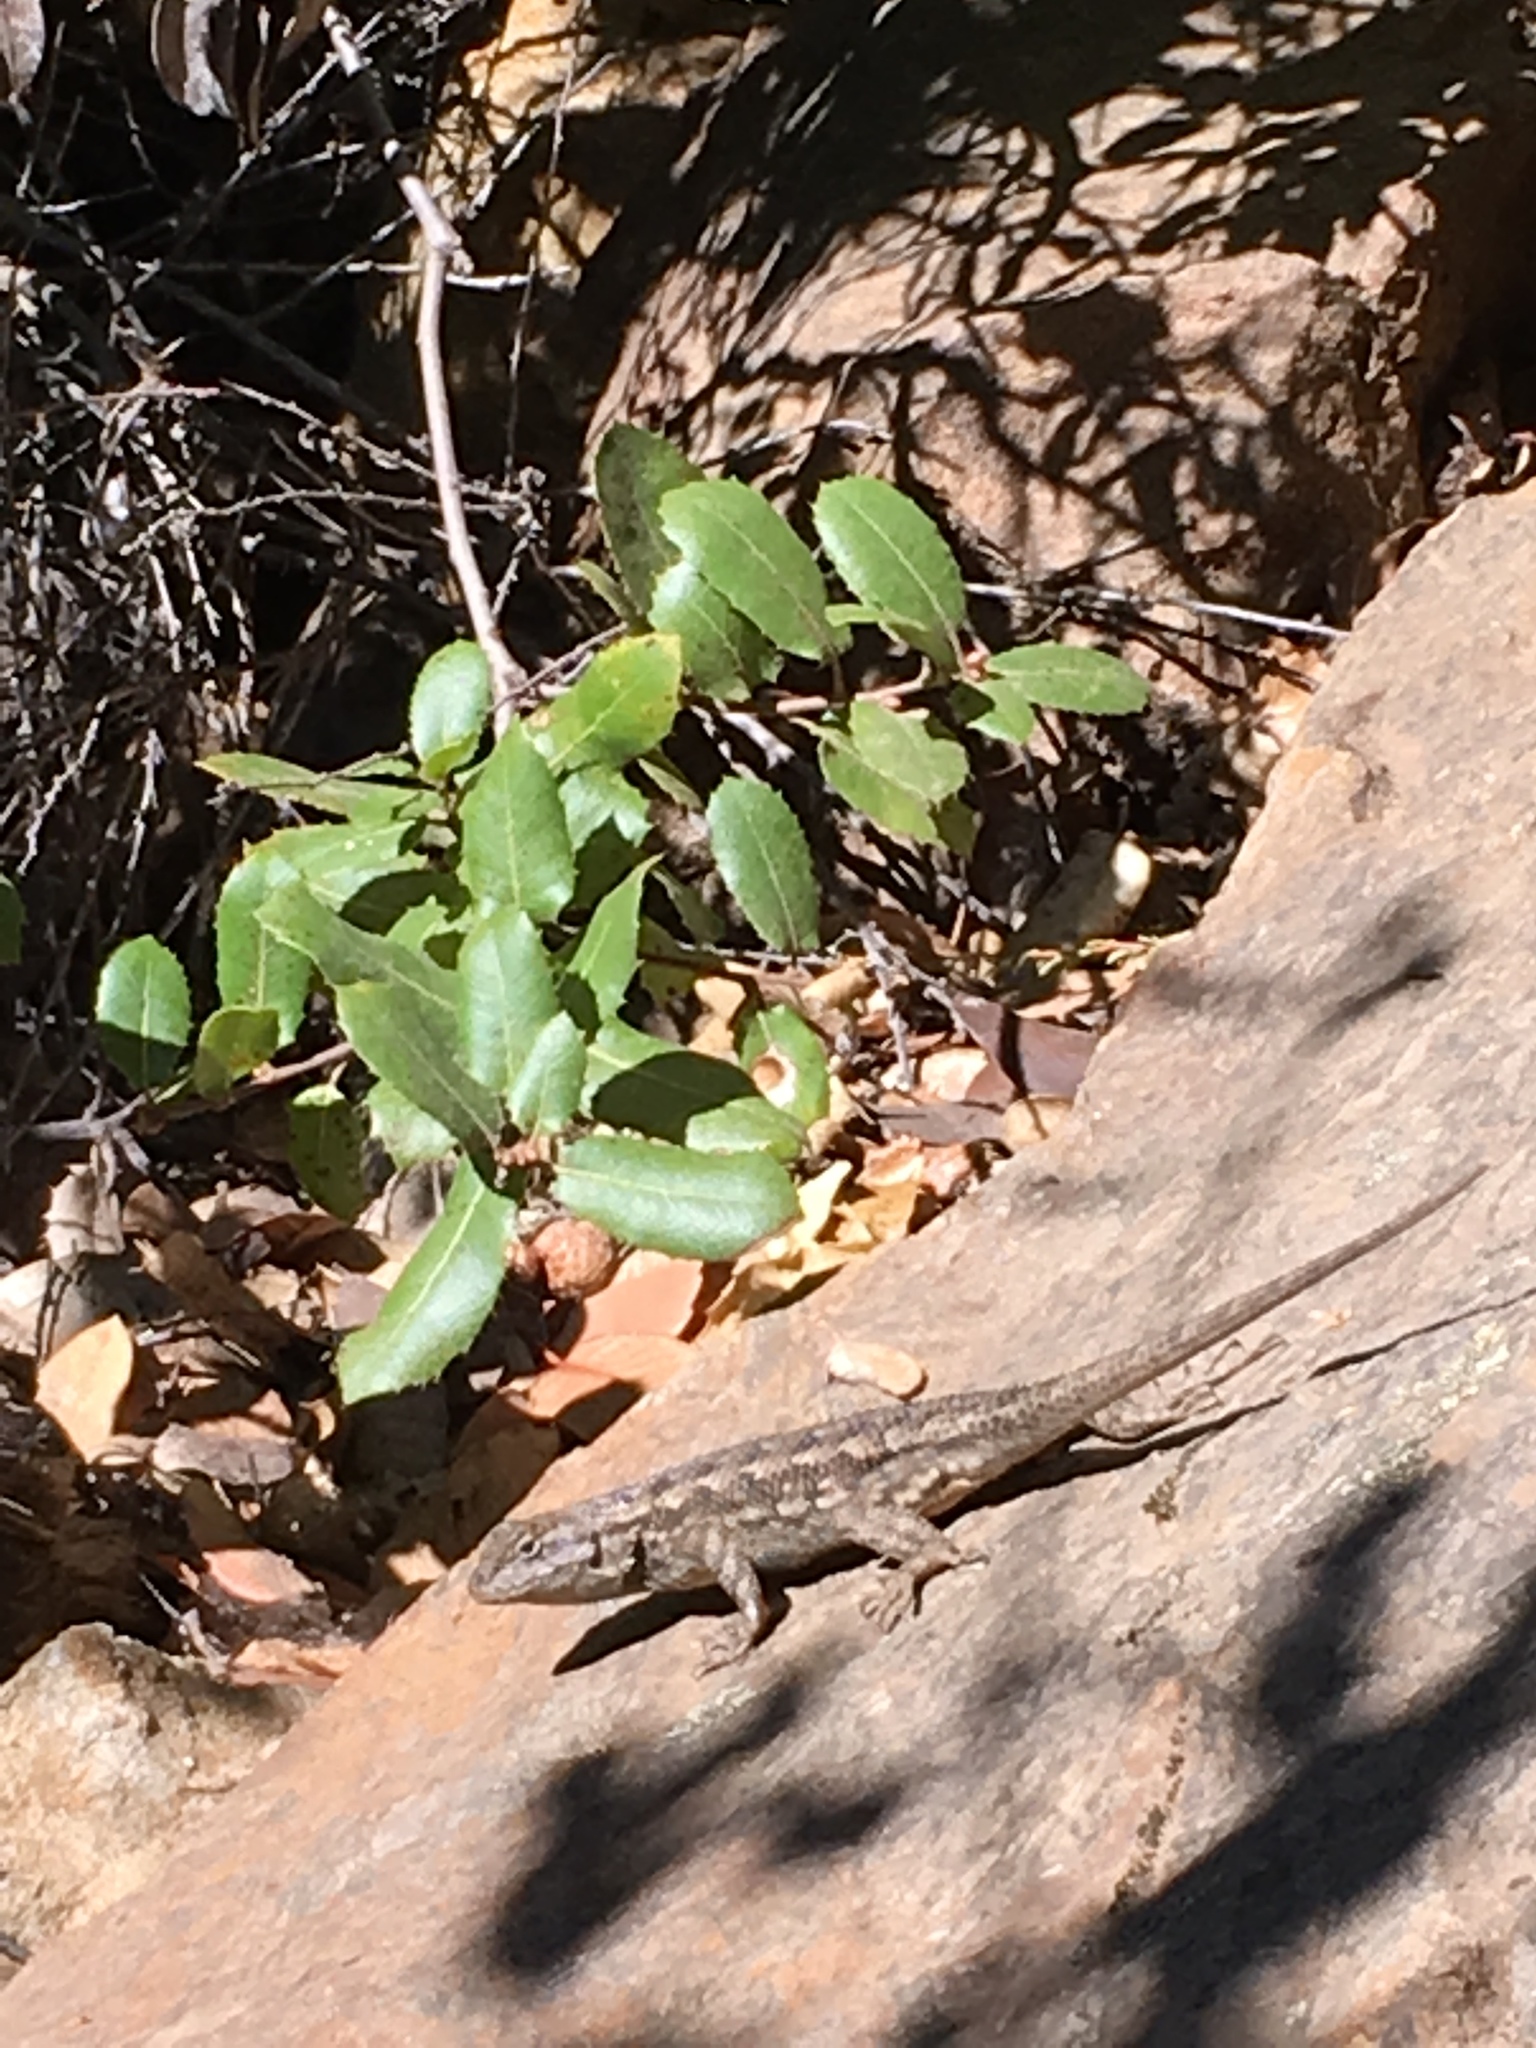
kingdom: Animalia
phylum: Chordata
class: Squamata
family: Phrynosomatidae
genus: Sceloporus
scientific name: Sceloporus occidentalis
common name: Western fence lizard
